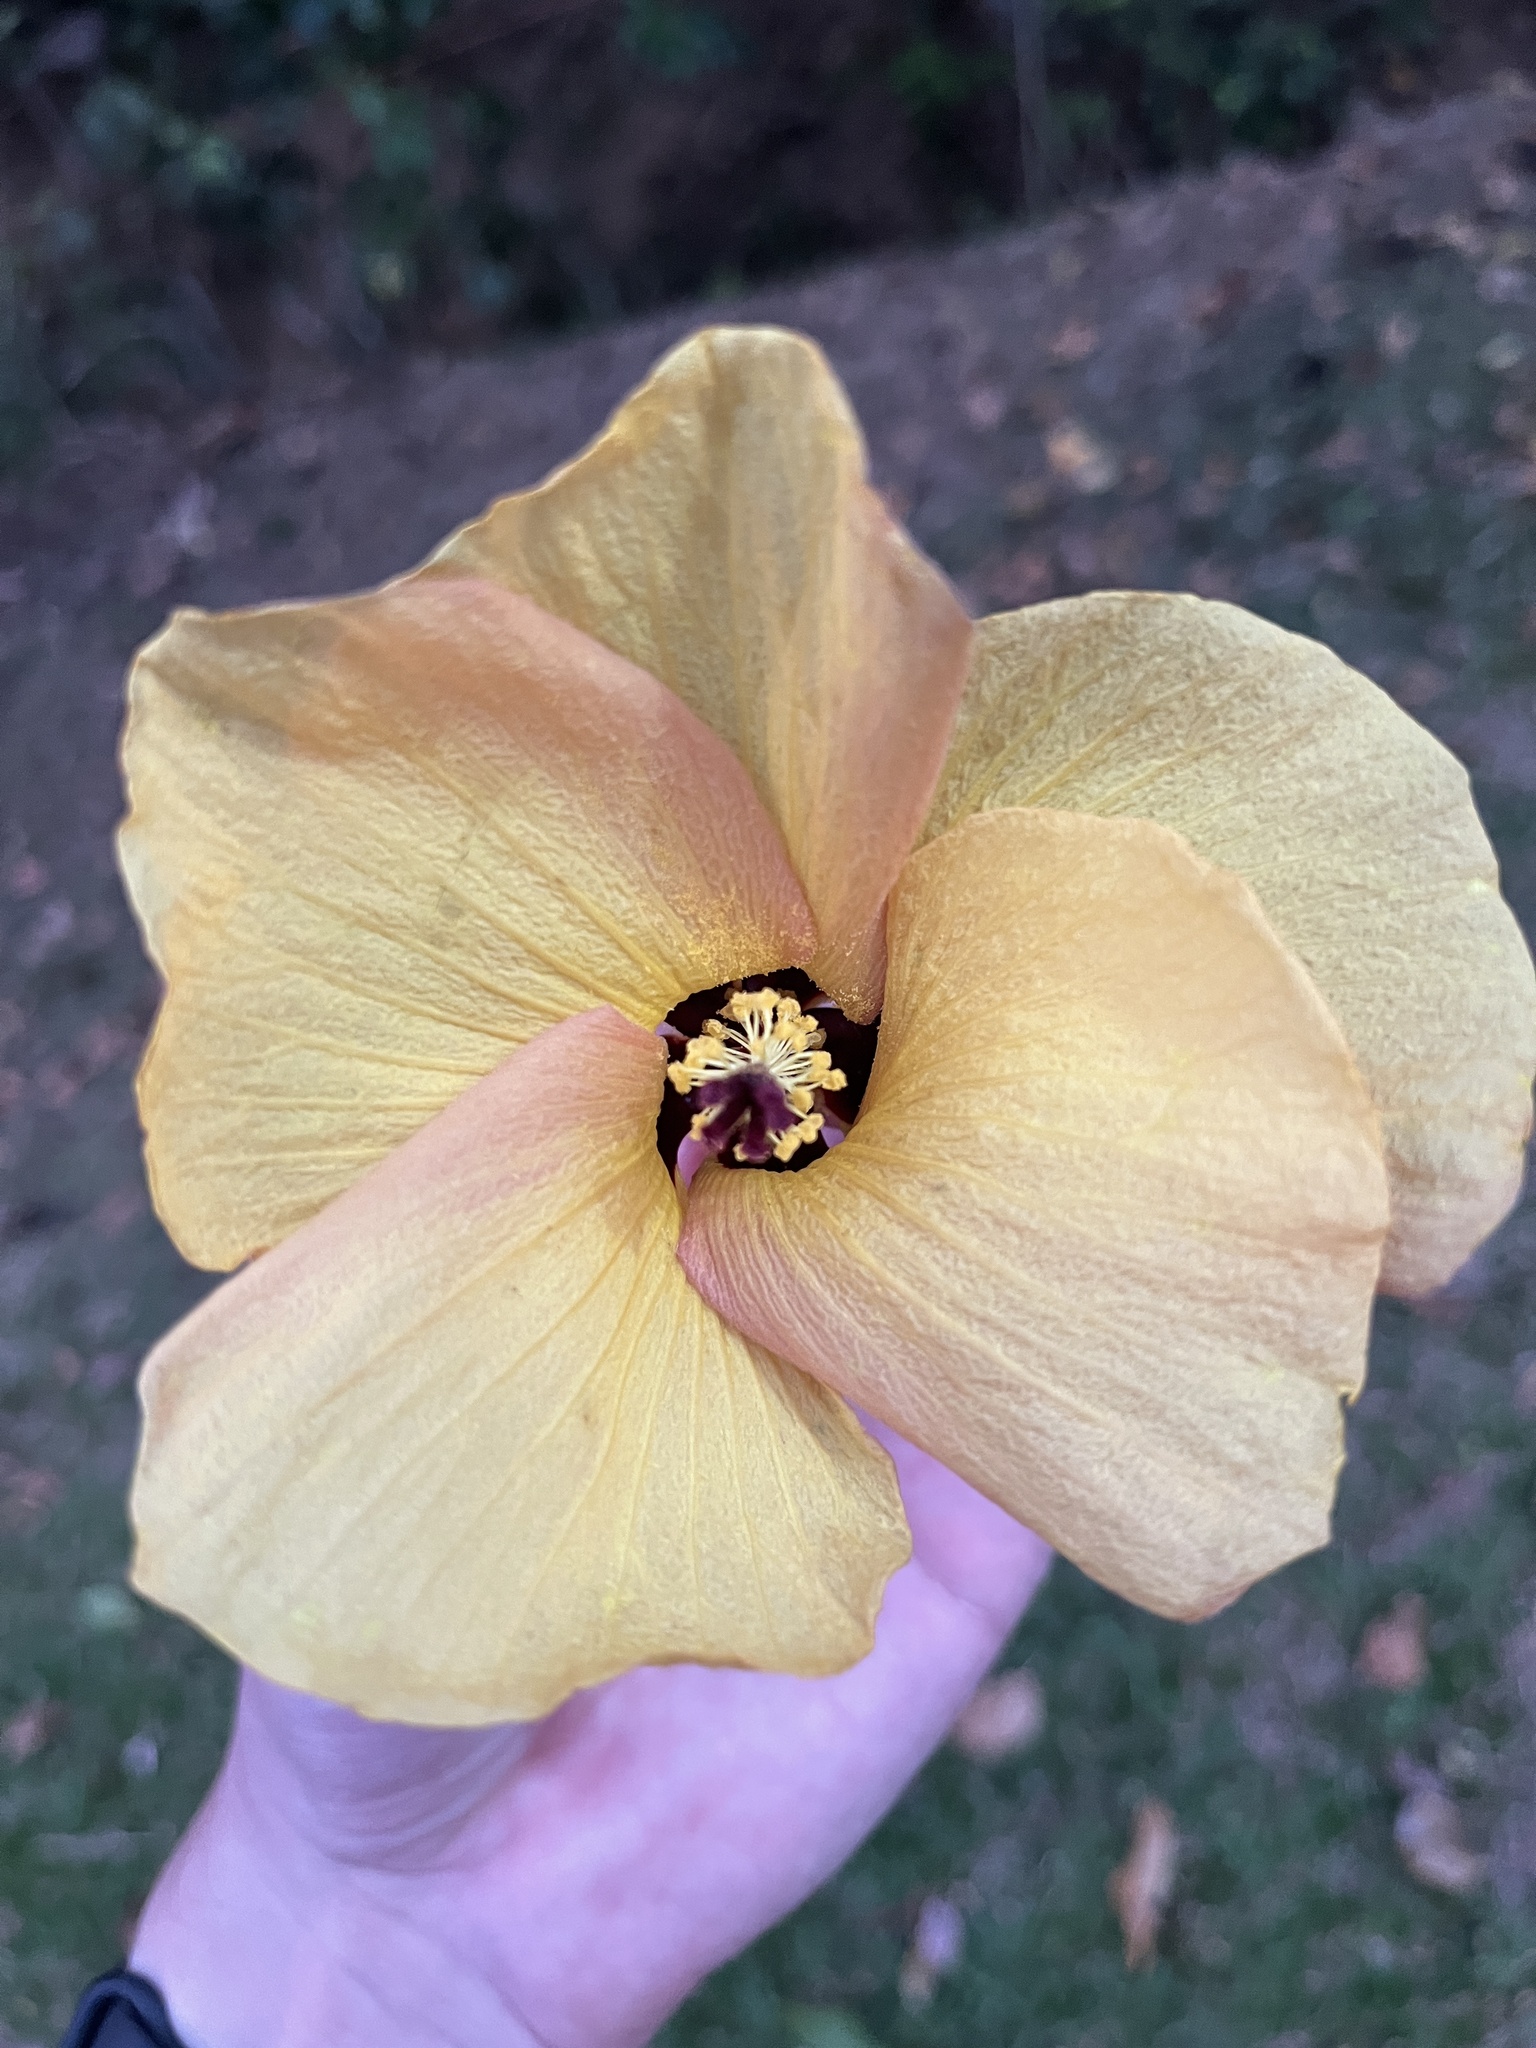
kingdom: Plantae
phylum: Tracheophyta
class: Magnoliopsida
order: Malvales
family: Malvaceae
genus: Talipariti
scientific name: Talipariti tiliaceum
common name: Sea hibiscus
